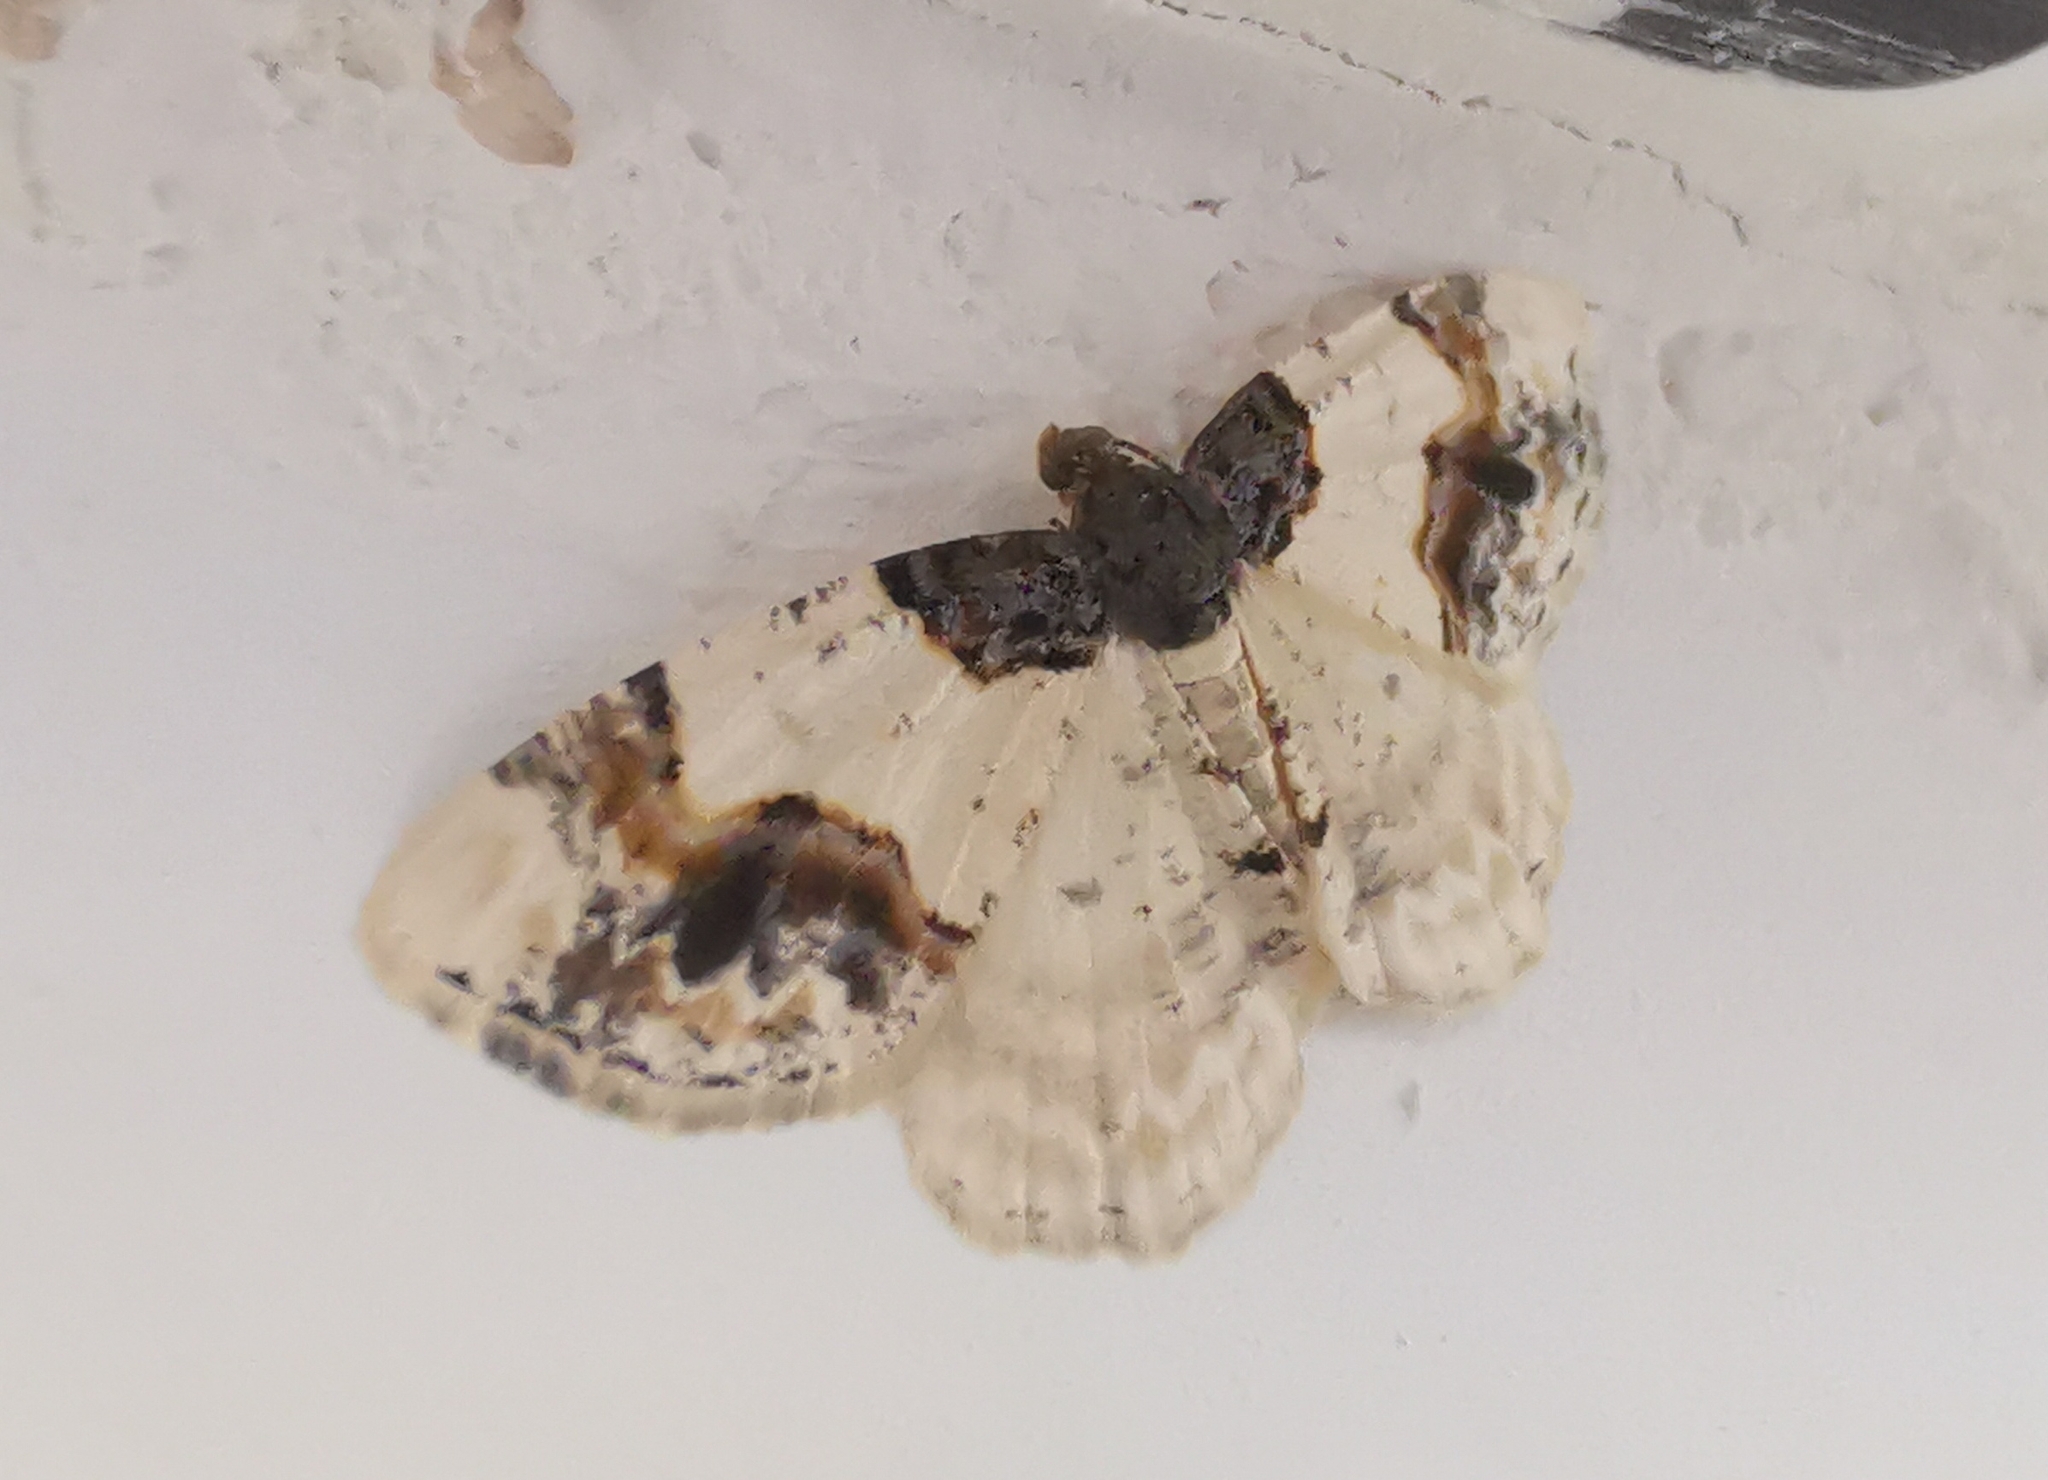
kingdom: Animalia
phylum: Arthropoda
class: Insecta
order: Lepidoptera
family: Geometridae
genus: Ligdia
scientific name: Ligdia adustata
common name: Scorched carpet
